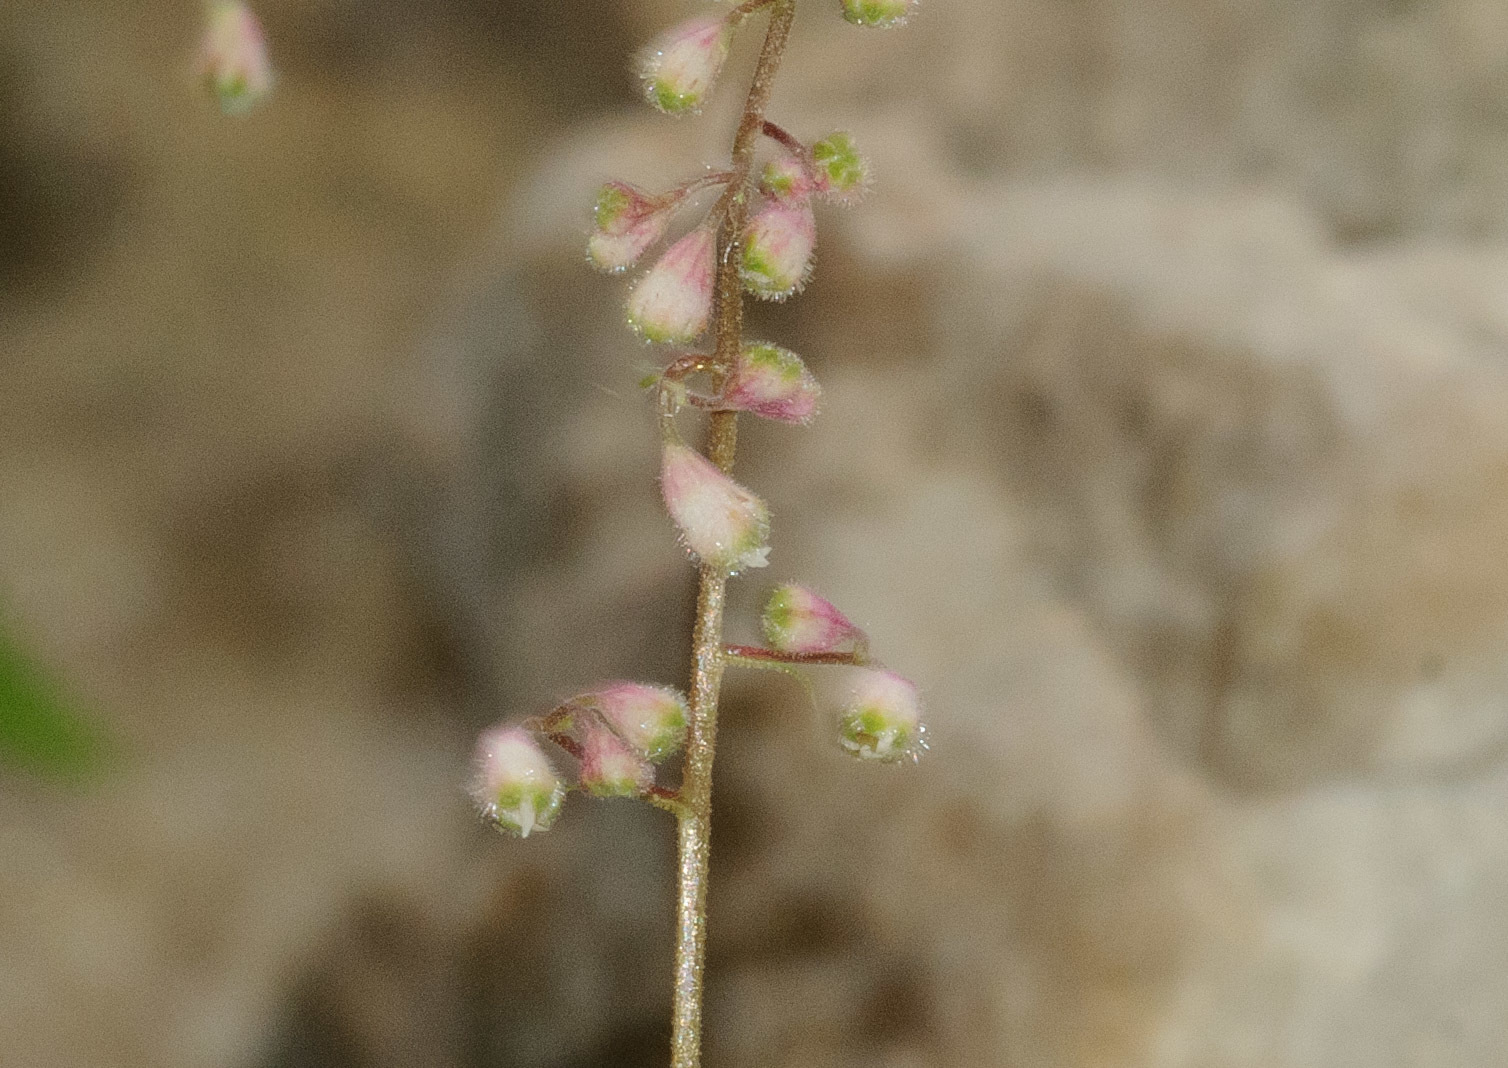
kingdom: Plantae
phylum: Tracheophyta
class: Magnoliopsida
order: Saxifragales
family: Saxifragaceae
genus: Heuchera
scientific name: Heuchera rubescens
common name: Jack-o'the-rocks
